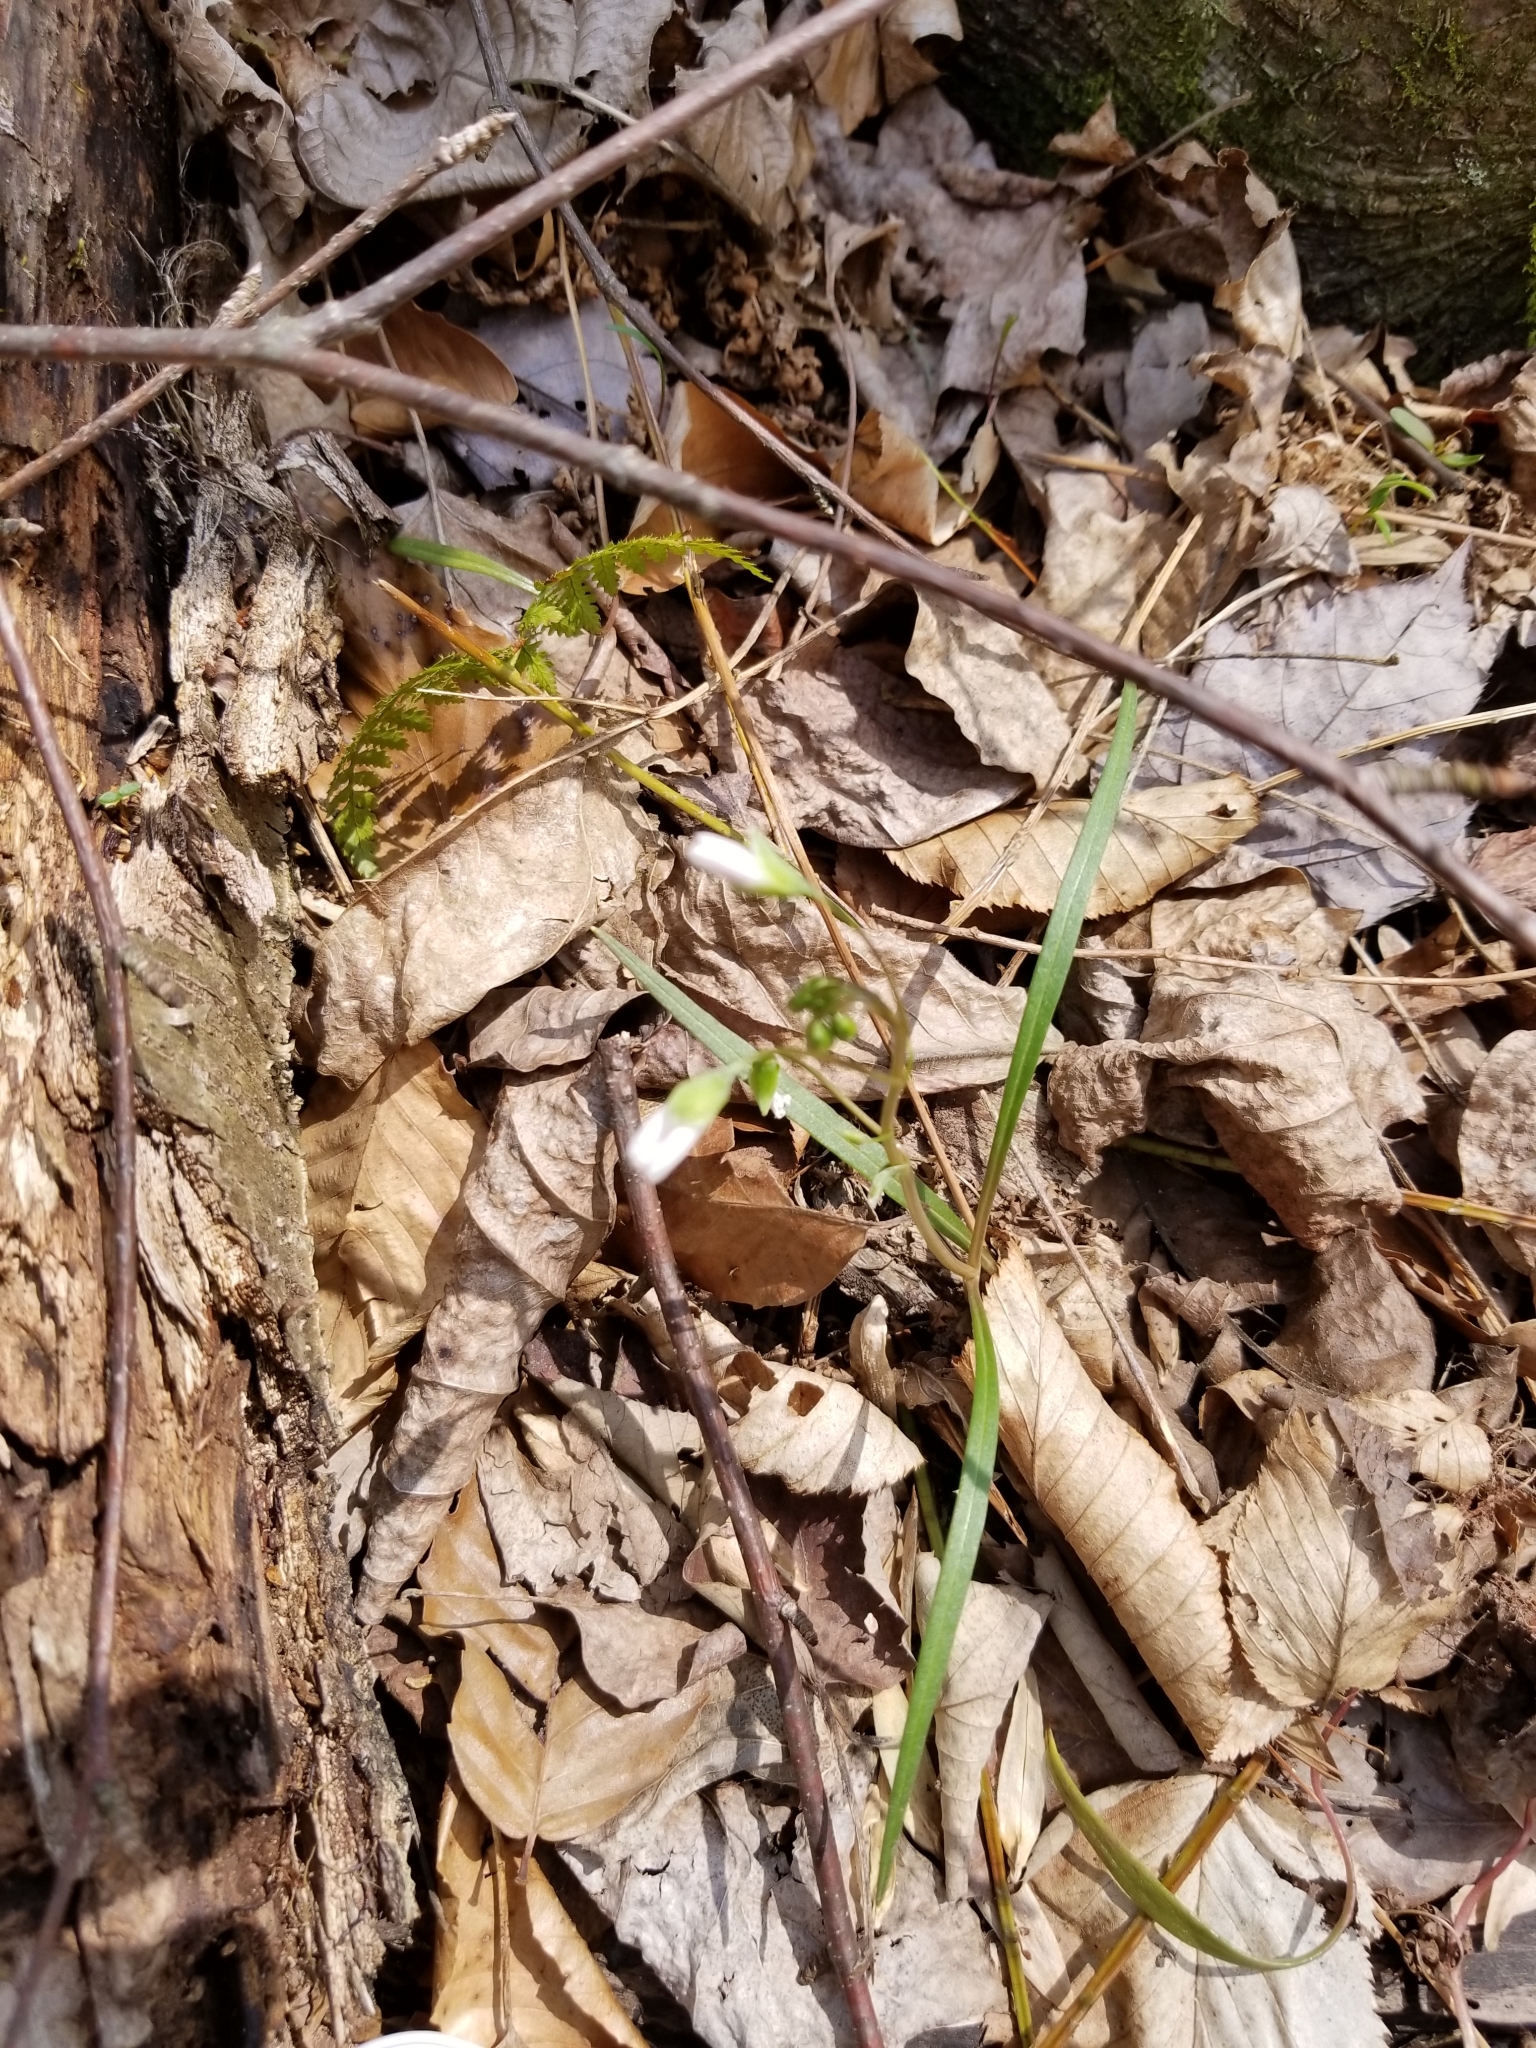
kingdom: Plantae
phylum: Tracheophyta
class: Magnoliopsida
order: Caryophyllales
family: Montiaceae
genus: Claytonia
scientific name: Claytonia virginica
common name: Virginia springbeauty
